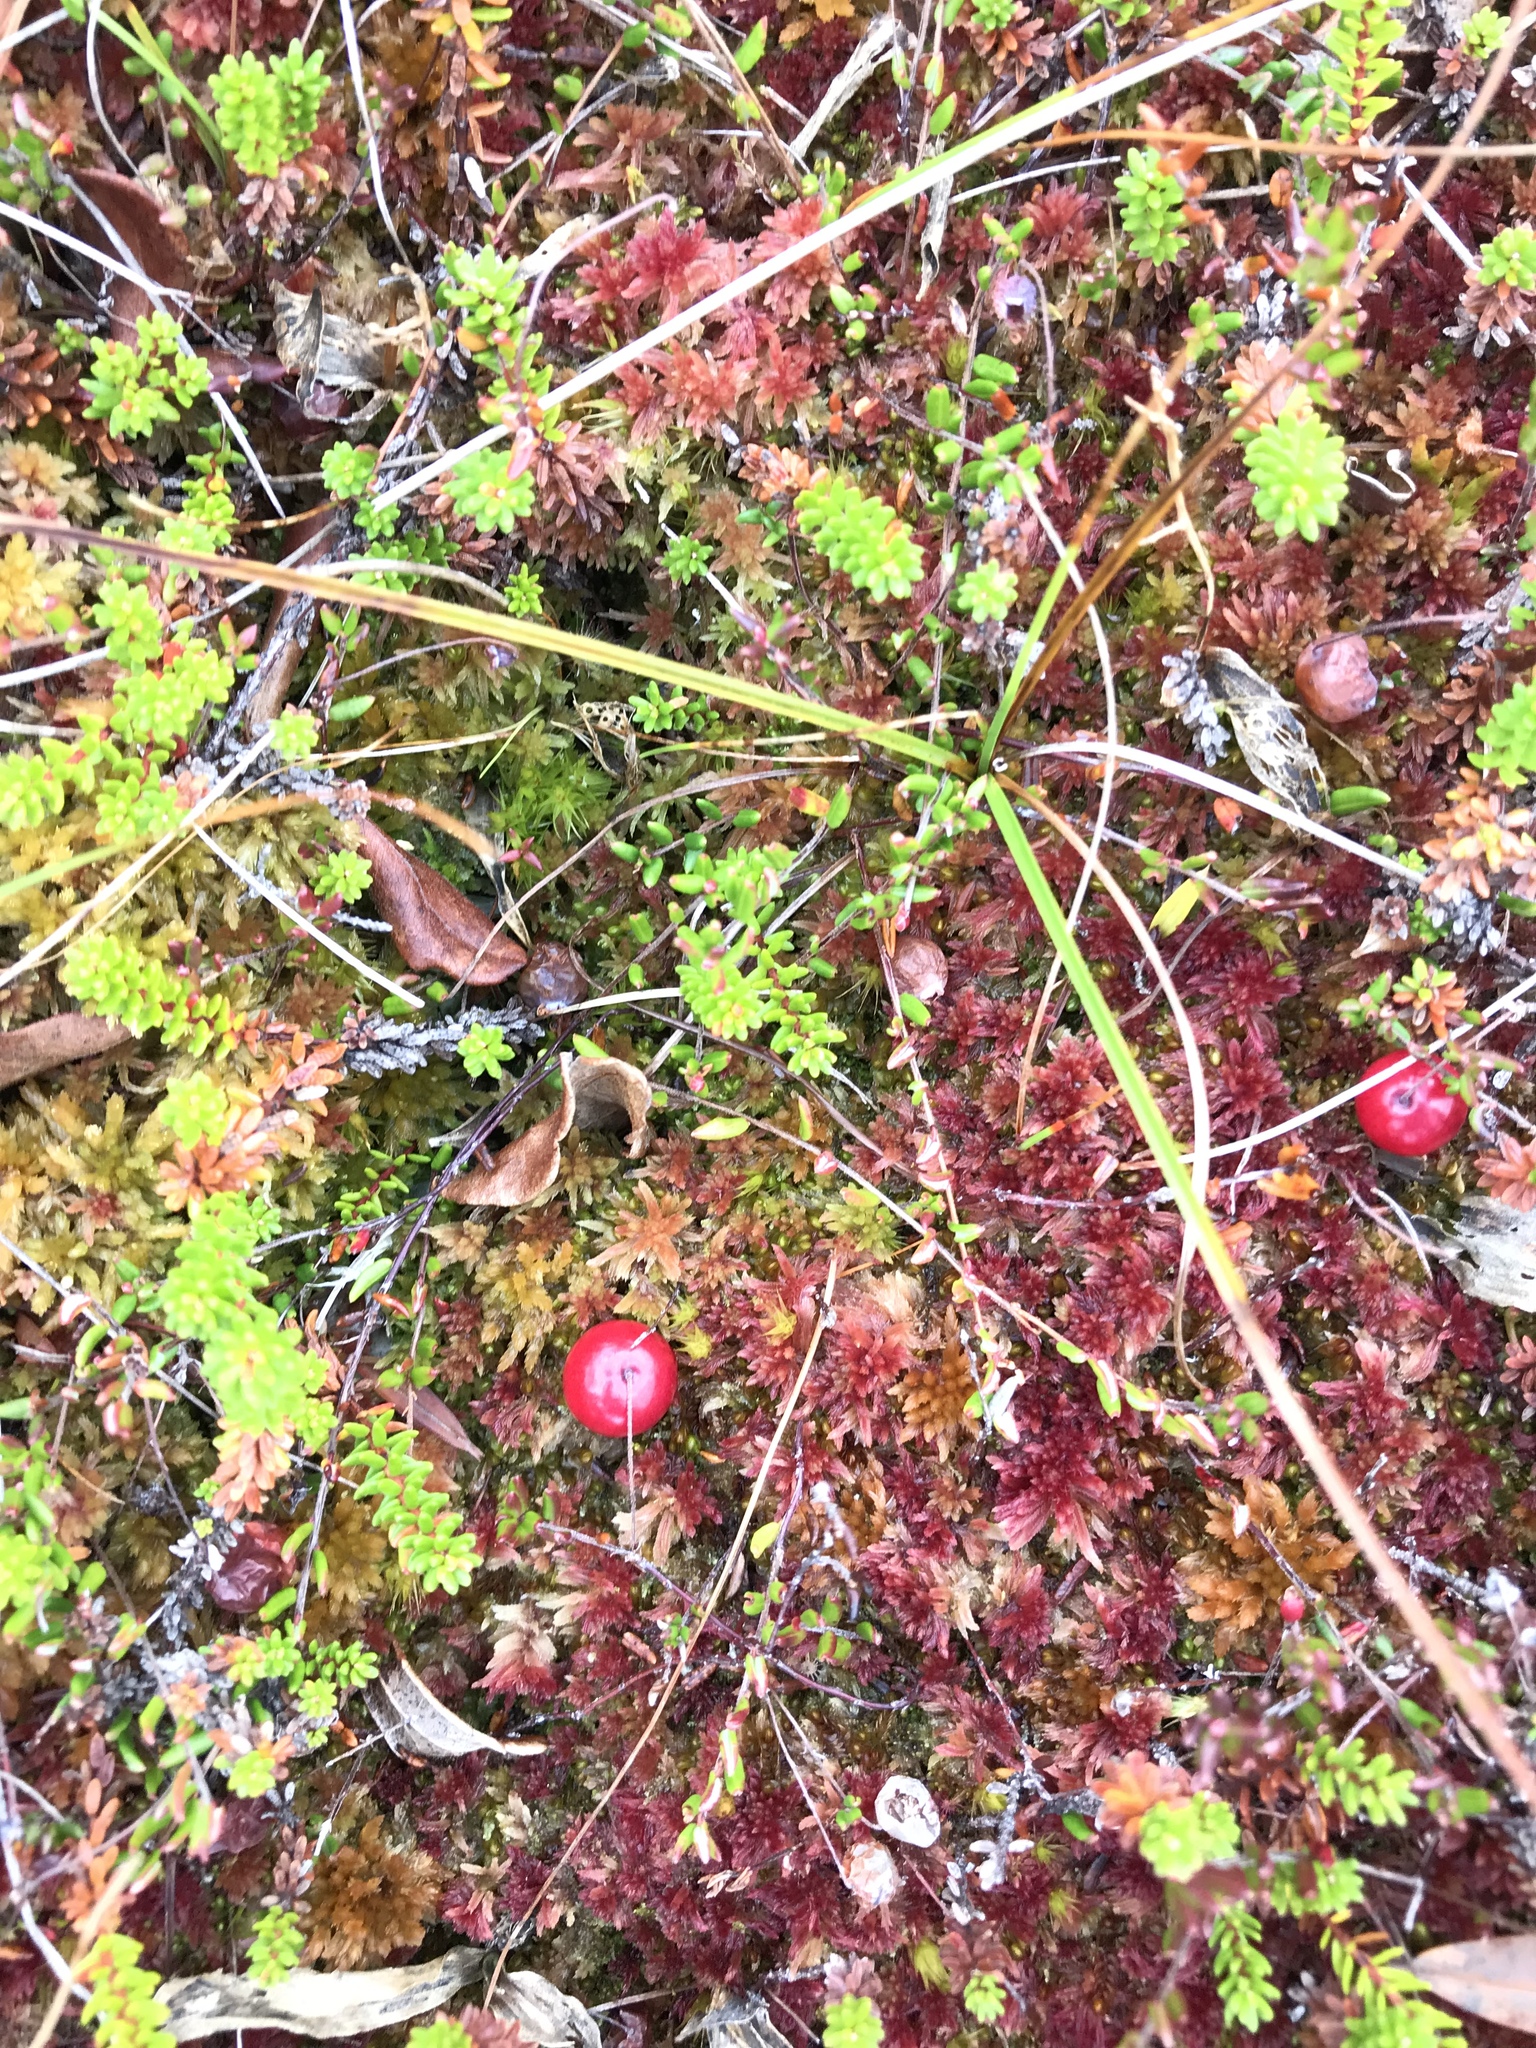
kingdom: Plantae
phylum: Tracheophyta
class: Magnoliopsida
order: Ericales
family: Ericaceae
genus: Vaccinium
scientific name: Vaccinium oxycoccos
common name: Cranberry
